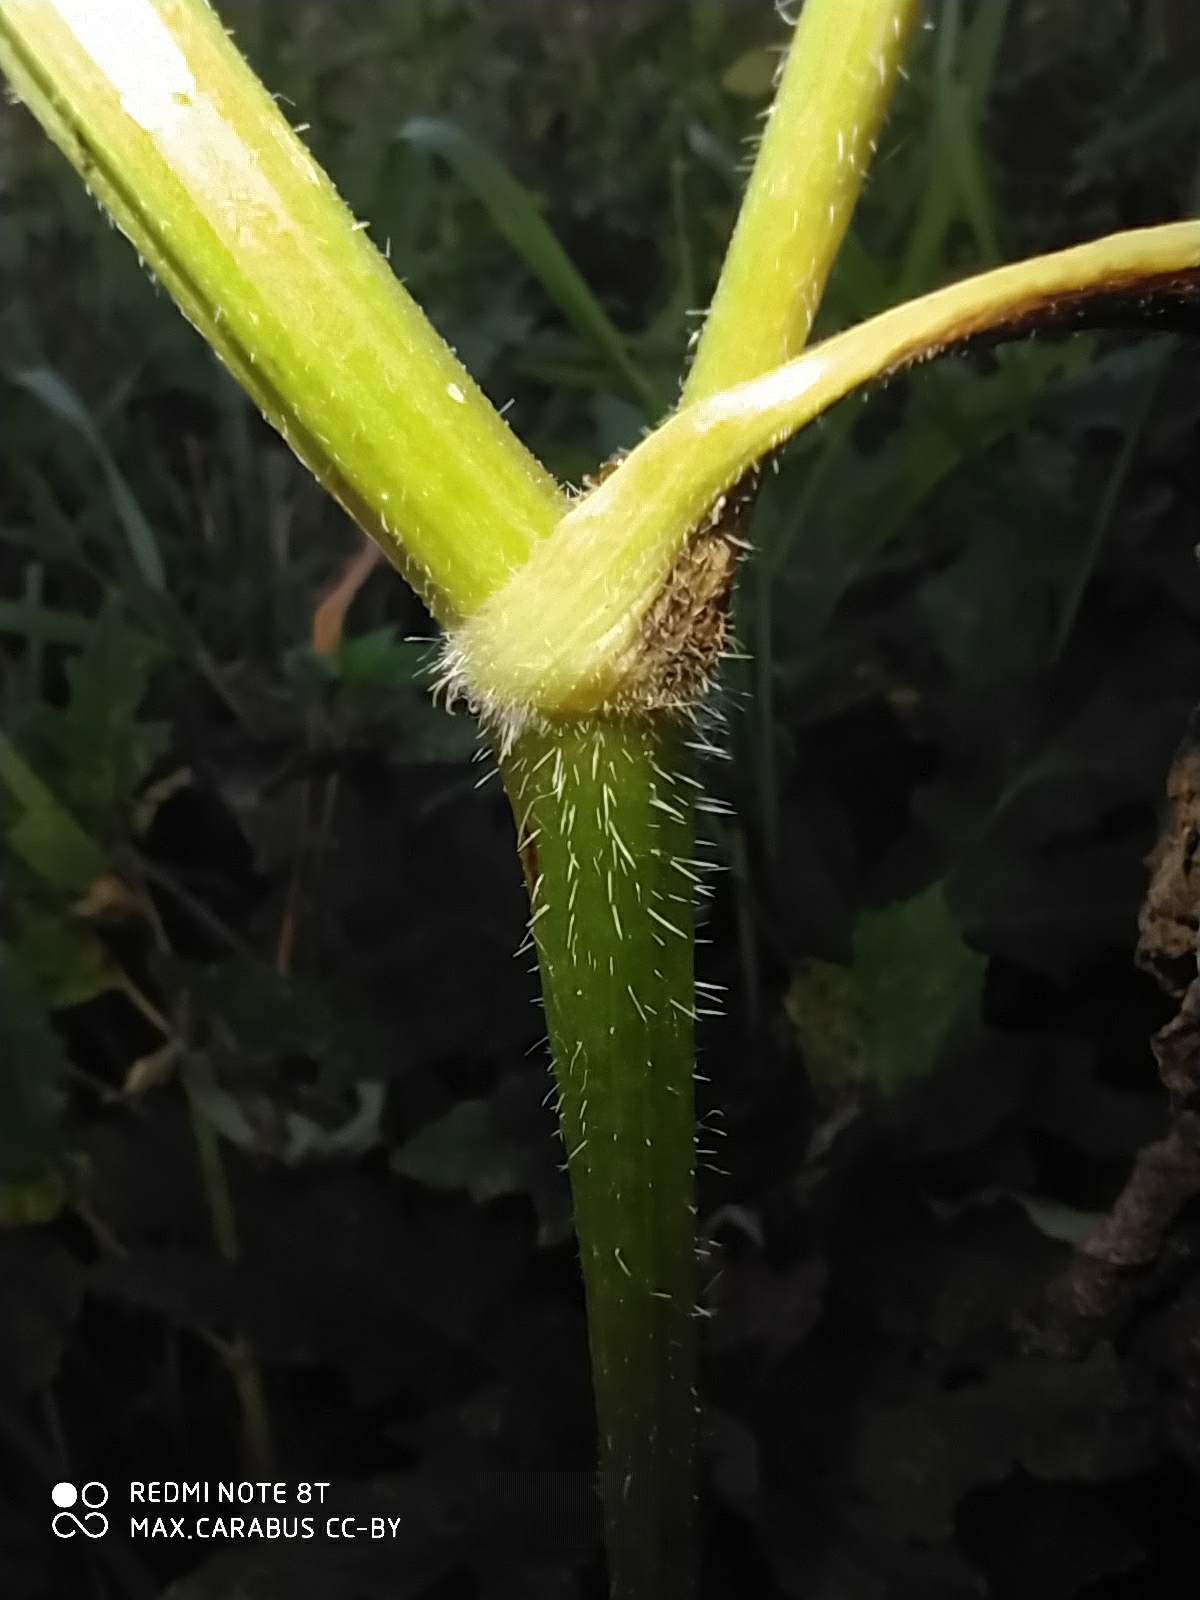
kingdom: Plantae
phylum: Tracheophyta
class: Magnoliopsida
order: Apiales
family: Apiaceae
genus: Heracleum
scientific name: Heracleum sphondylium
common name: Hogweed
